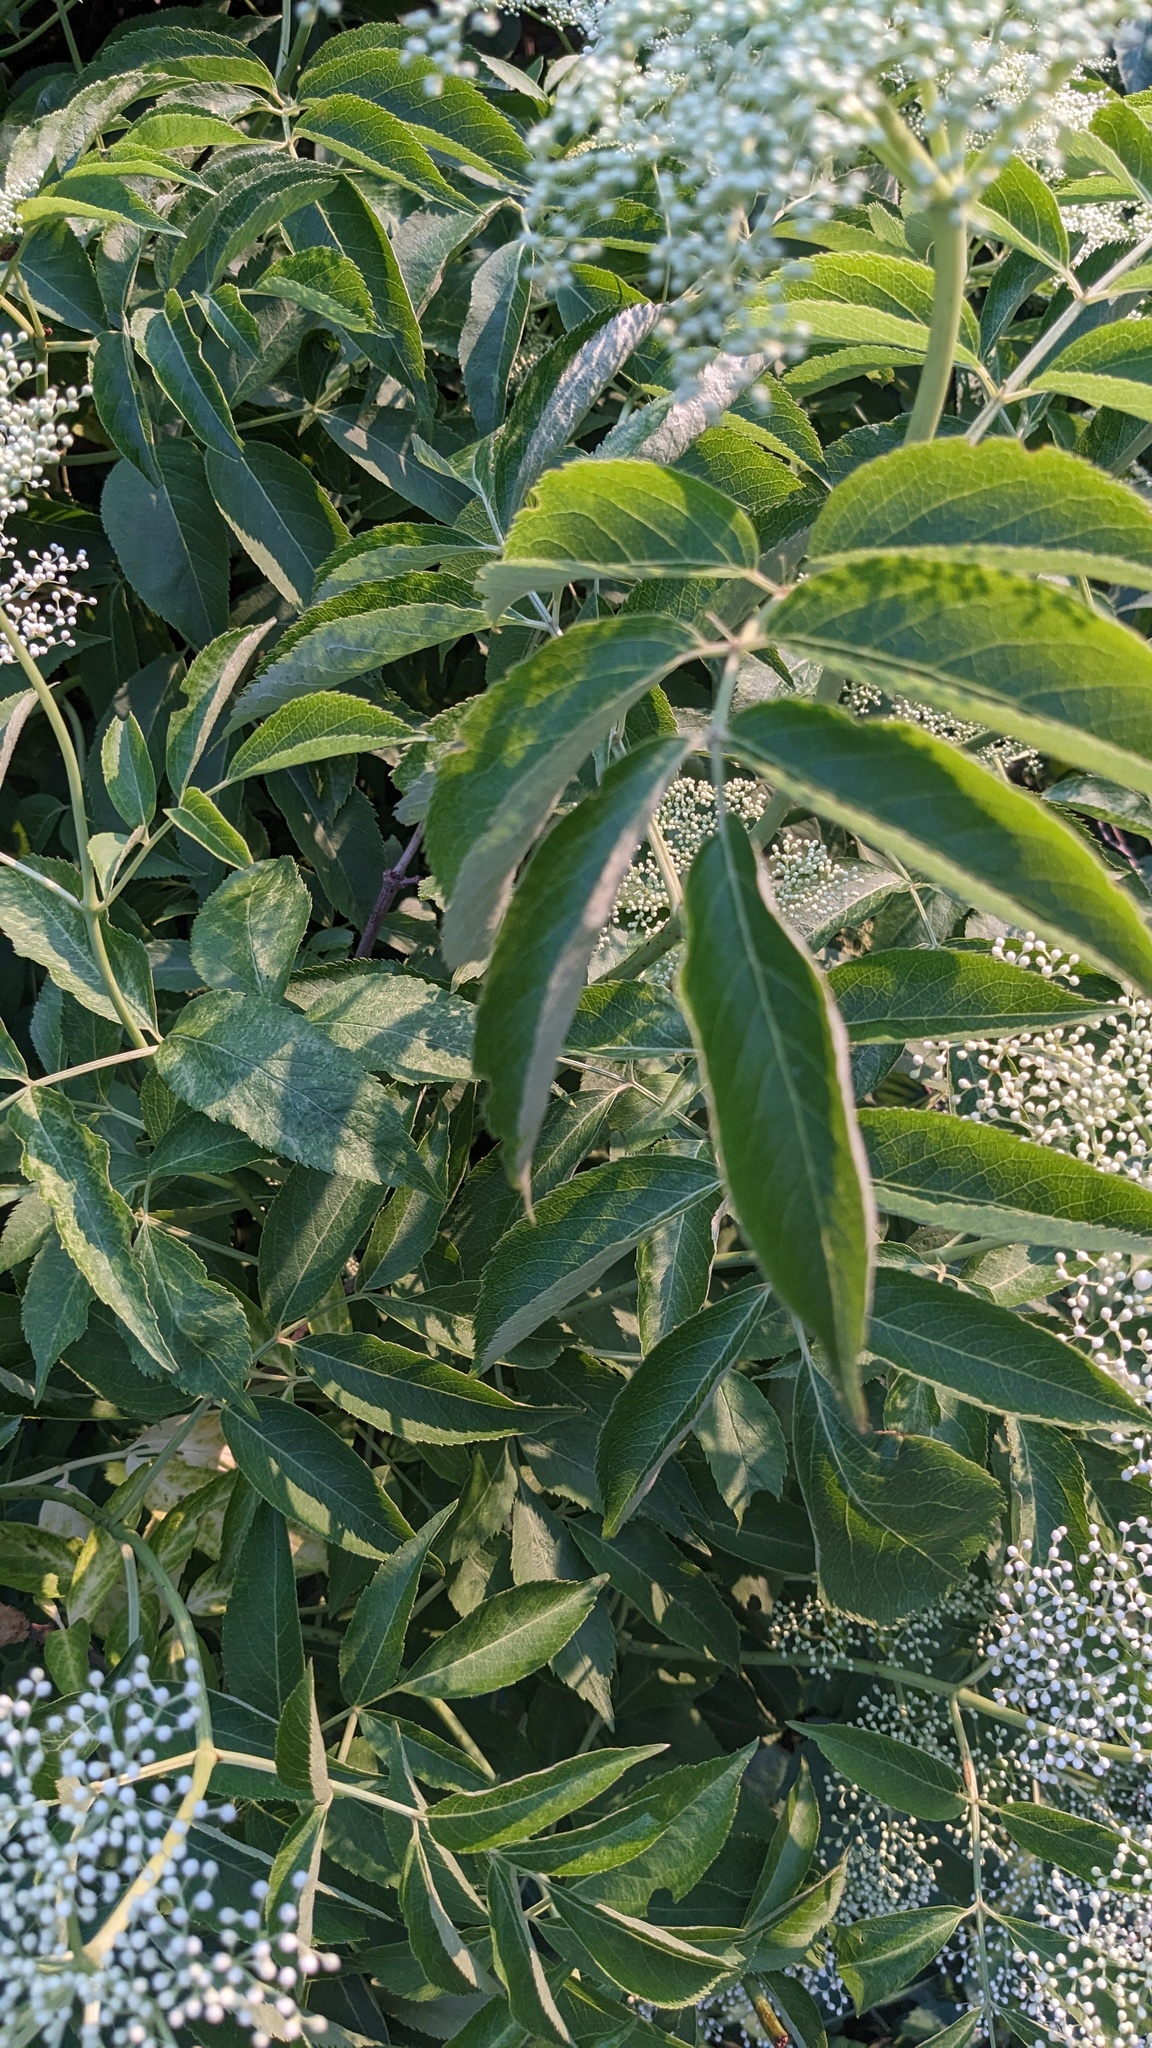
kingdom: Plantae
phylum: Tracheophyta
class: Magnoliopsida
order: Dipsacales
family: Viburnaceae
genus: Sambucus
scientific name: Sambucus canadensis
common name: American elder
